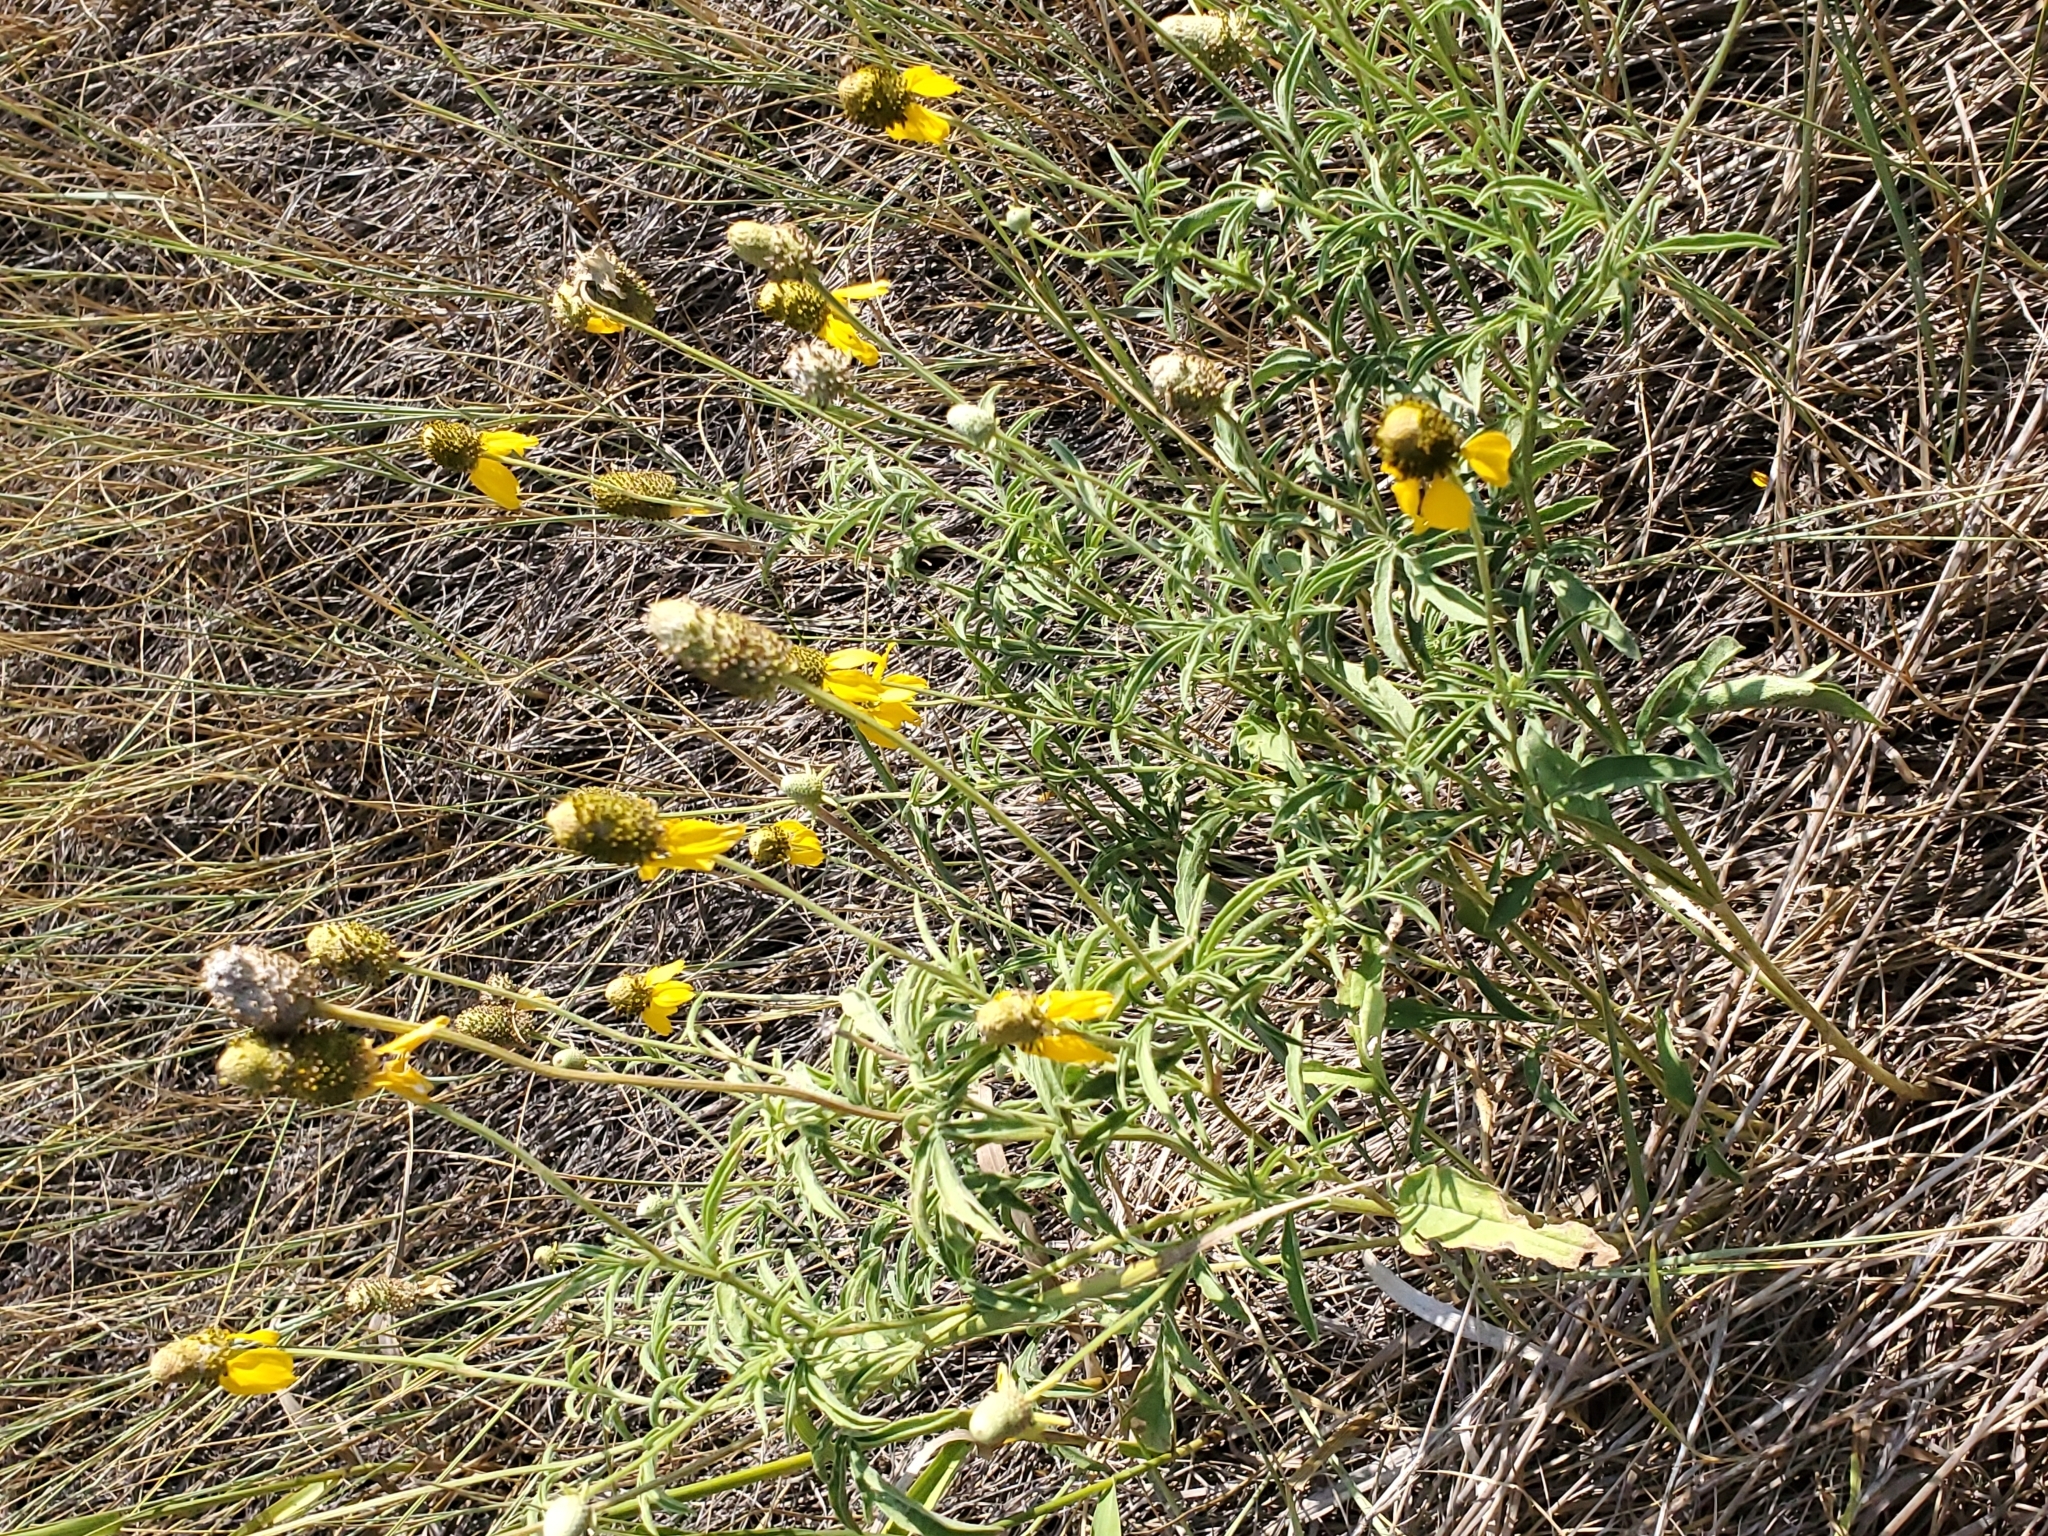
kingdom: Plantae
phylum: Tracheophyta
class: Magnoliopsida
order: Asterales
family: Asteraceae
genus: Ratibida
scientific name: Ratibida columnifera
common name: Prairie coneflower
